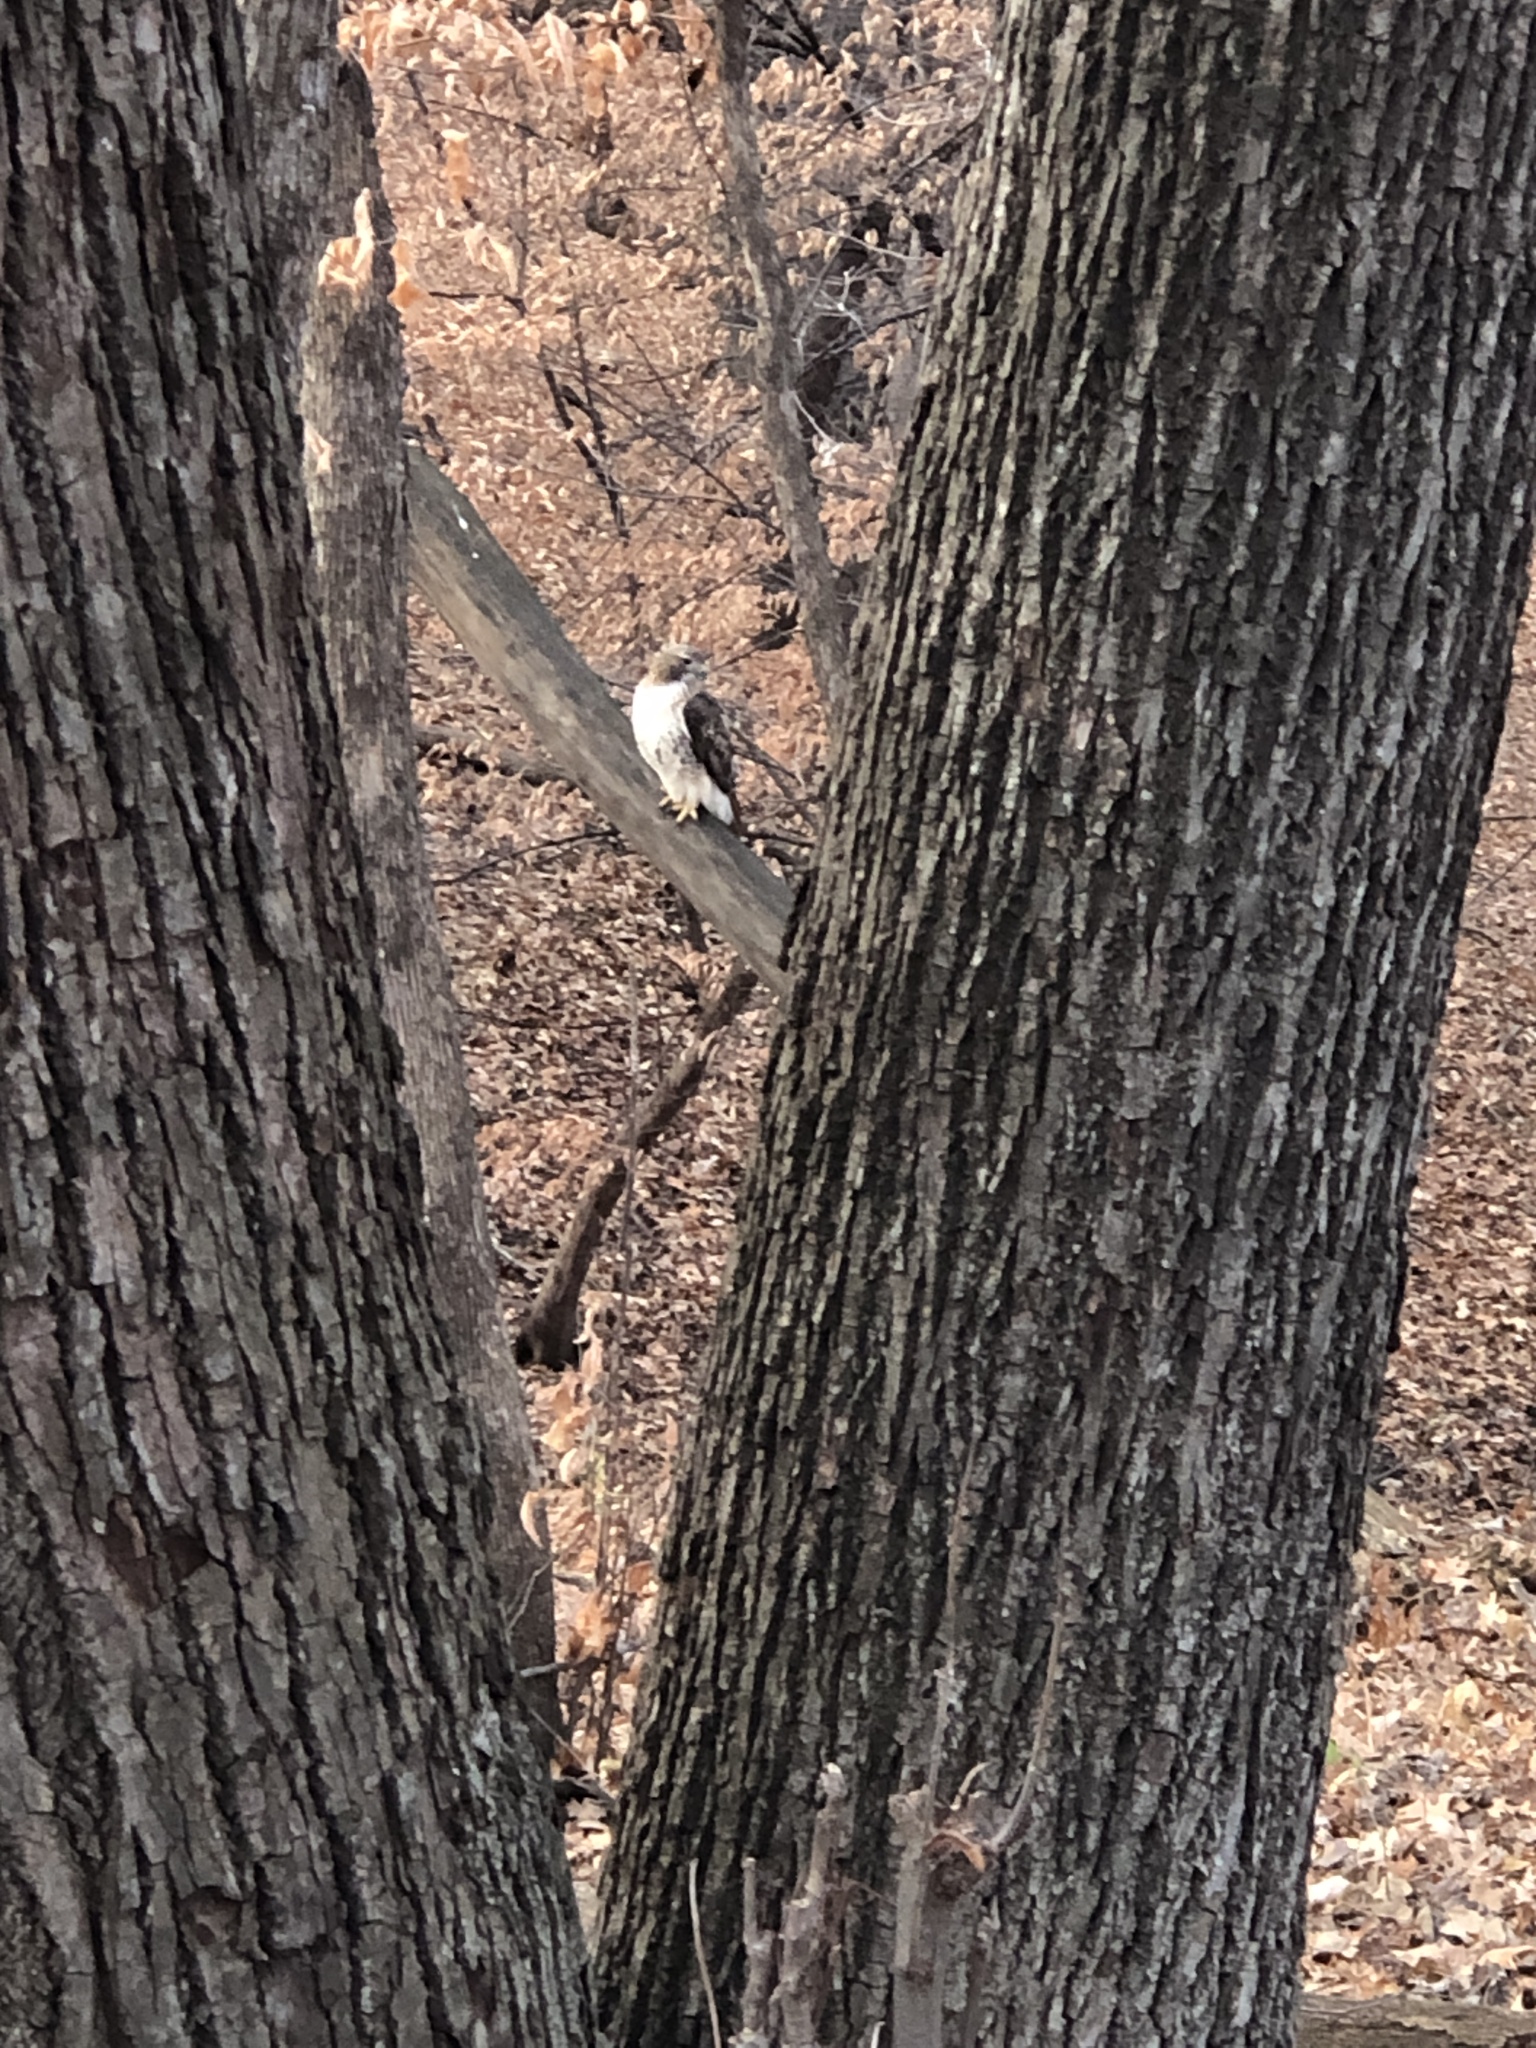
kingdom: Animalia
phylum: Chordata
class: Aves
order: Accipitriformes
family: Accipitridae
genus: Buteo
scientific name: Buteo jamaicensis
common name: Red-tailed hawk
